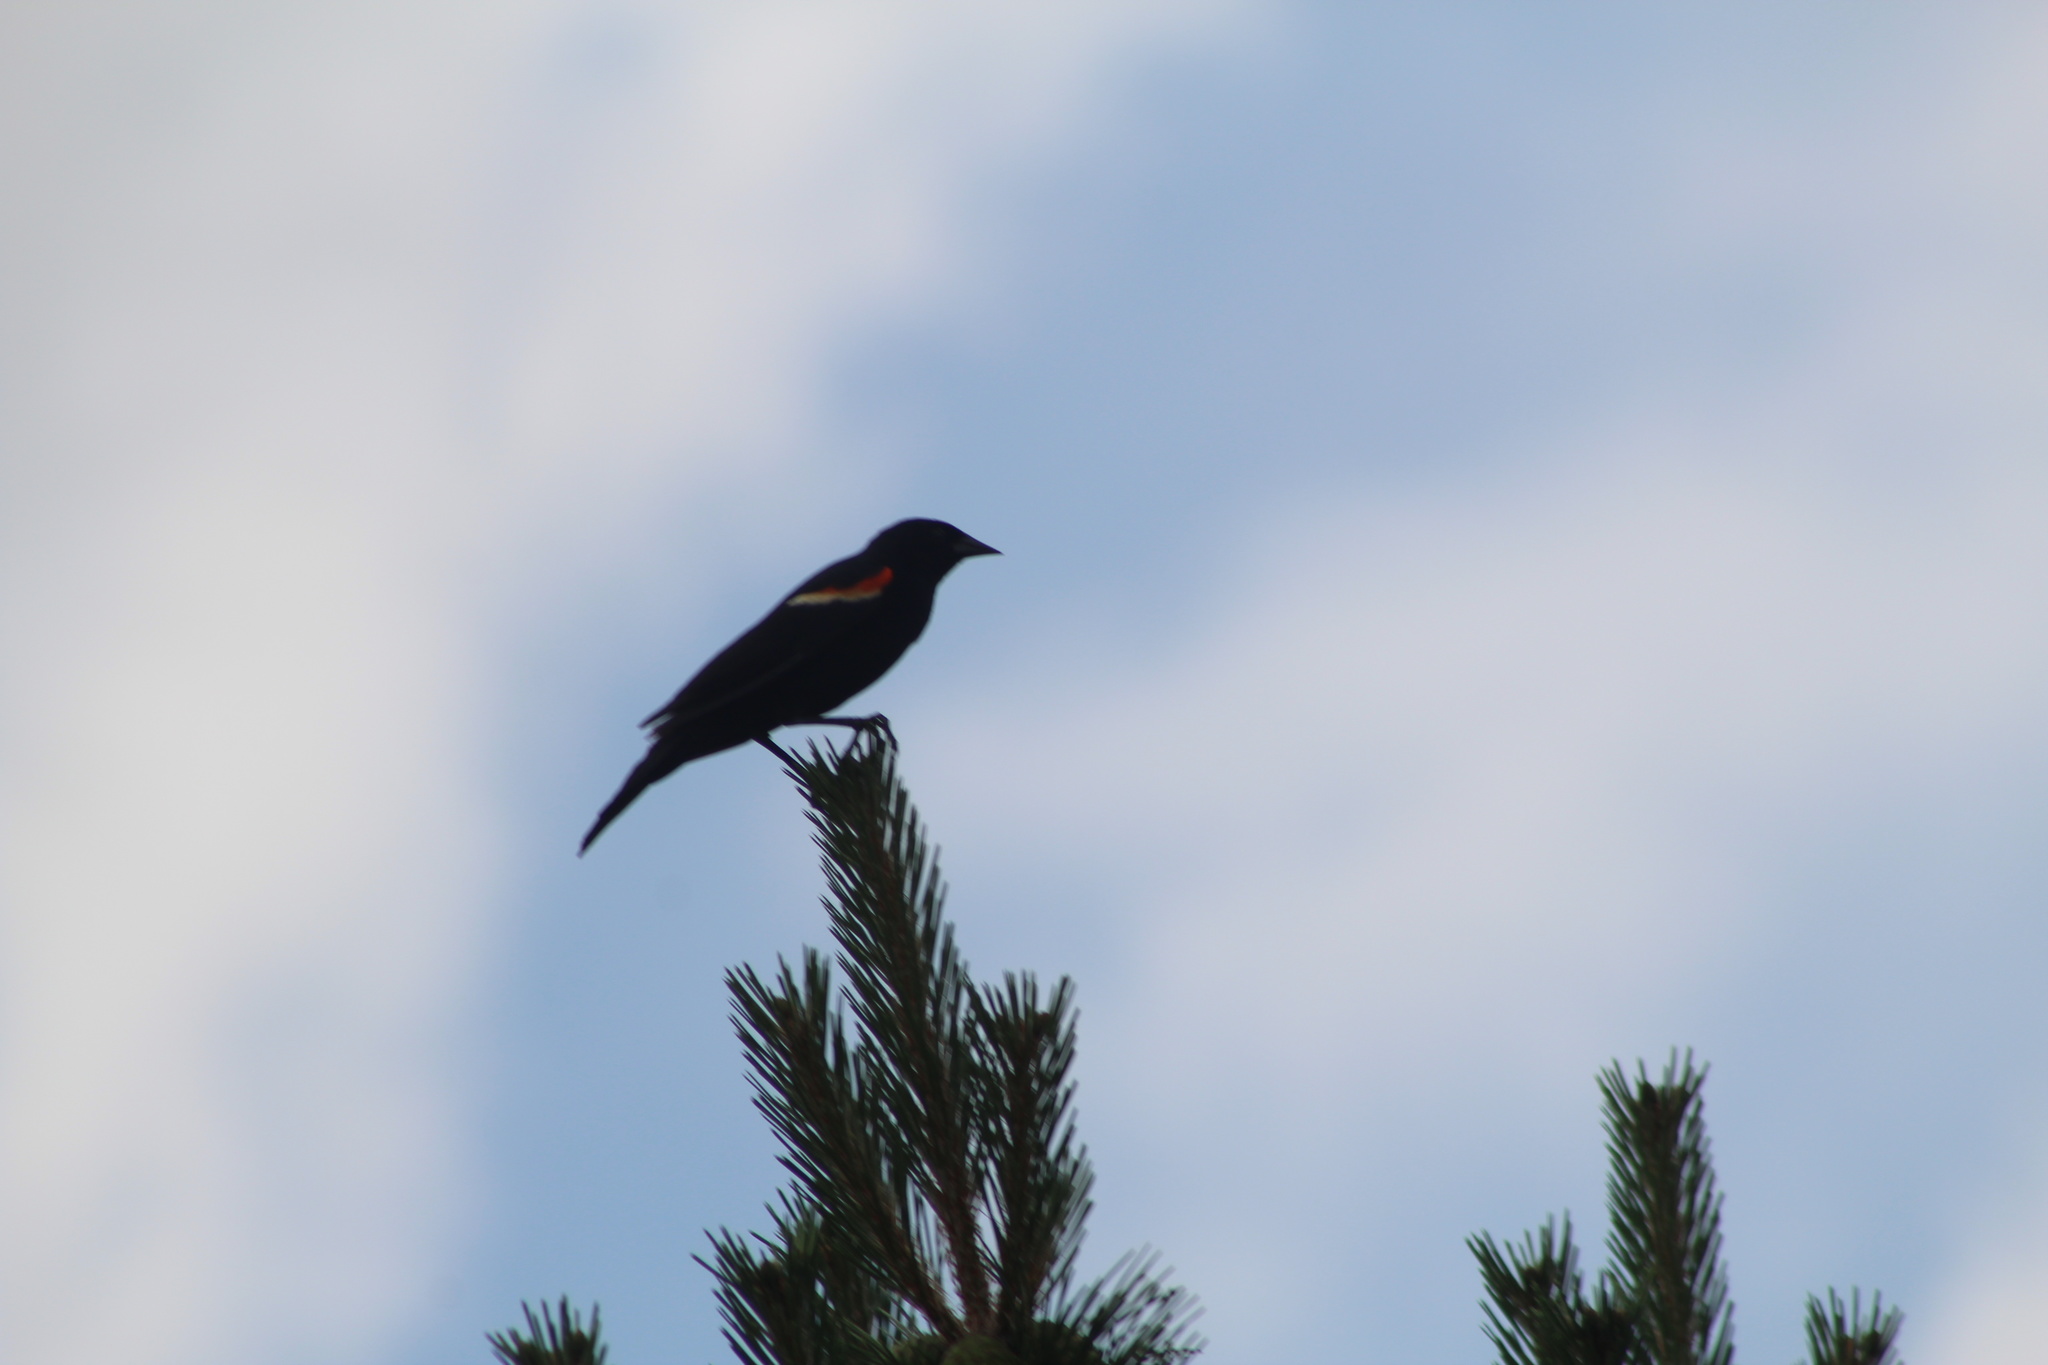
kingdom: Animalia
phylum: Chordata
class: Aves
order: Passeriformes
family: Icteridae
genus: Agelaius
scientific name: Agelaius phoeniceus
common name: Red-winged blackbird
